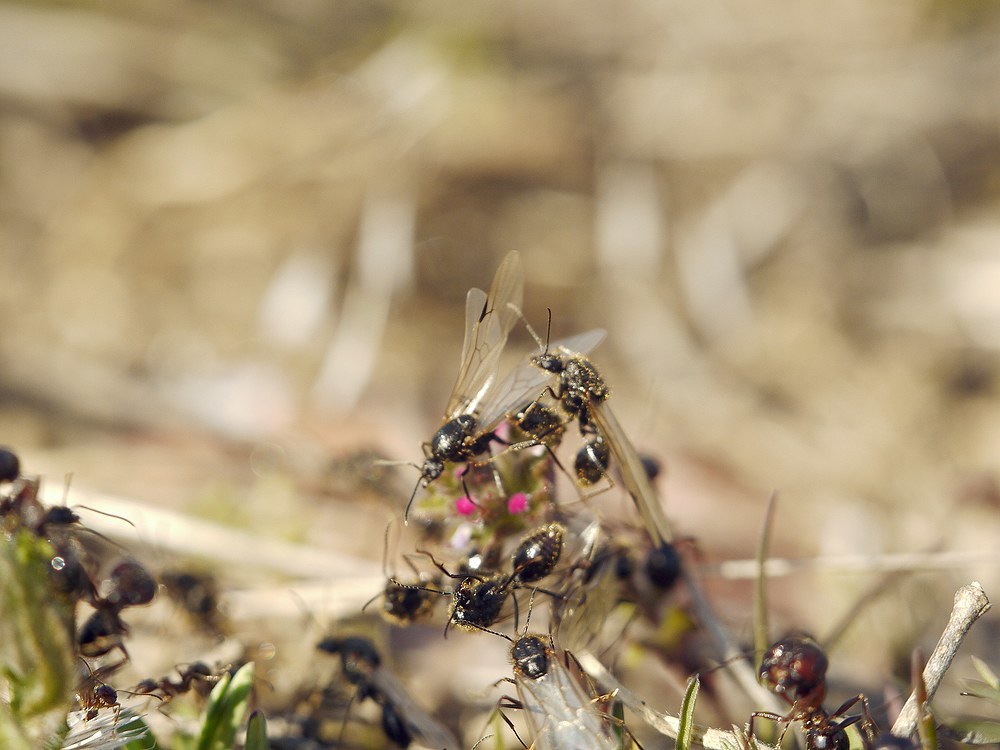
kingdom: Animalia
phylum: Arthropoda
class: Insecta
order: Hymenoptera
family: Formicidae
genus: Messor
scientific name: Messor structor
